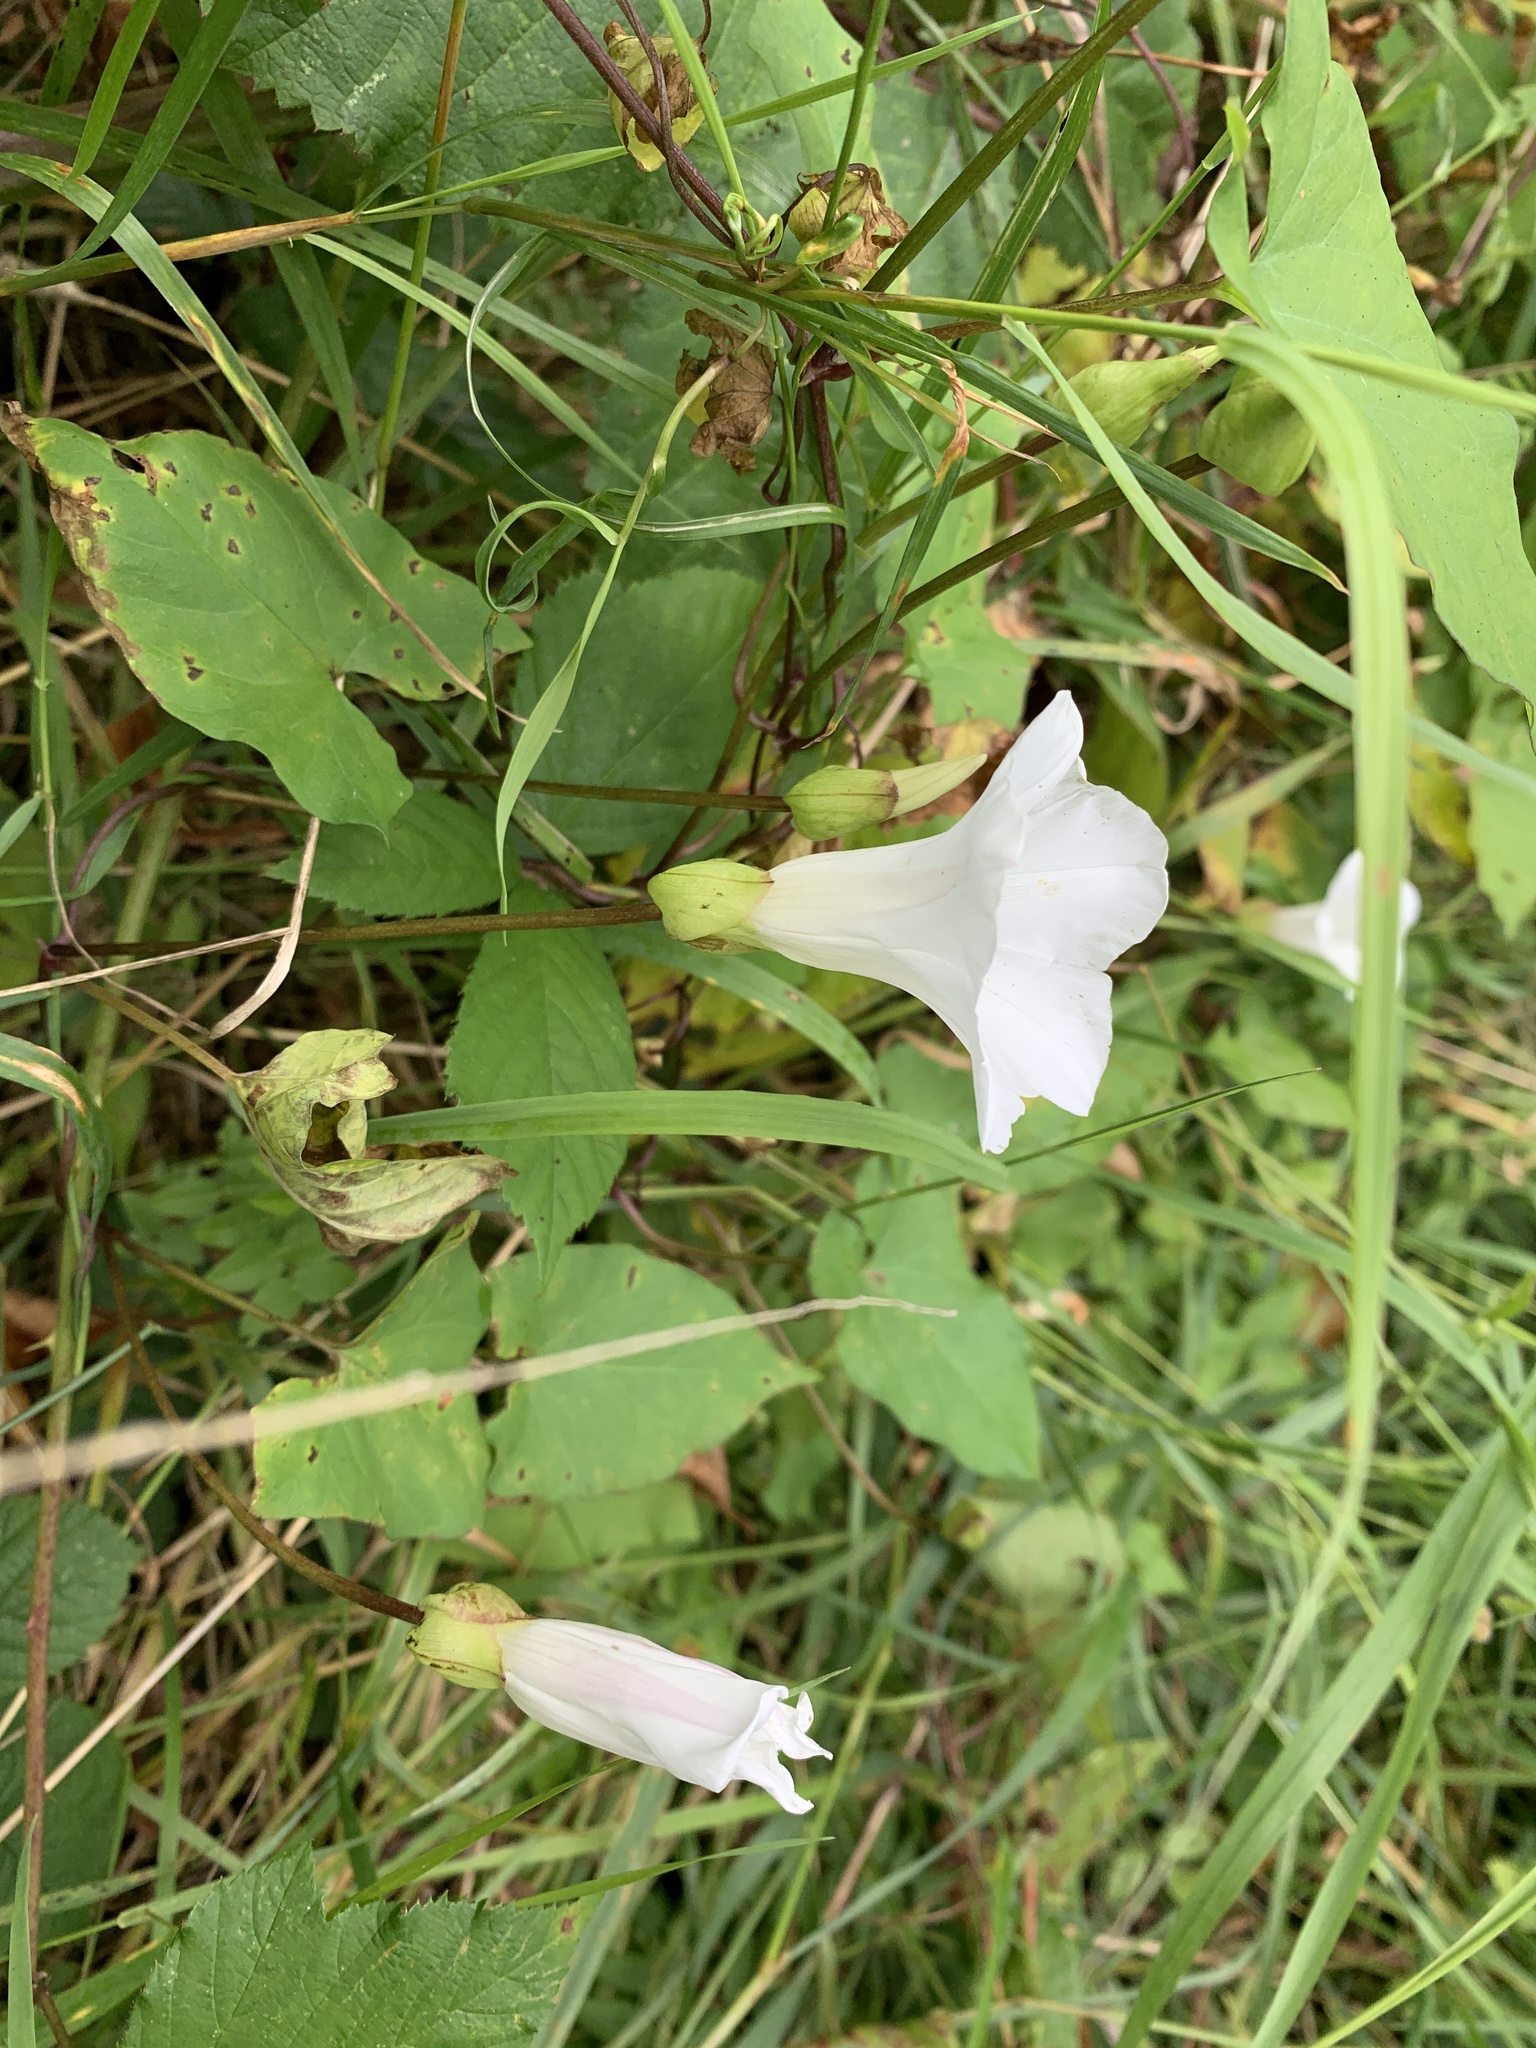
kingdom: Plantae
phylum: Tracheophyta
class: Magnoliopsida
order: Solanales
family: Convolvulaceae
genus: Calystegia
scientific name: Calystegia sepium
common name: Hedge bindweed
